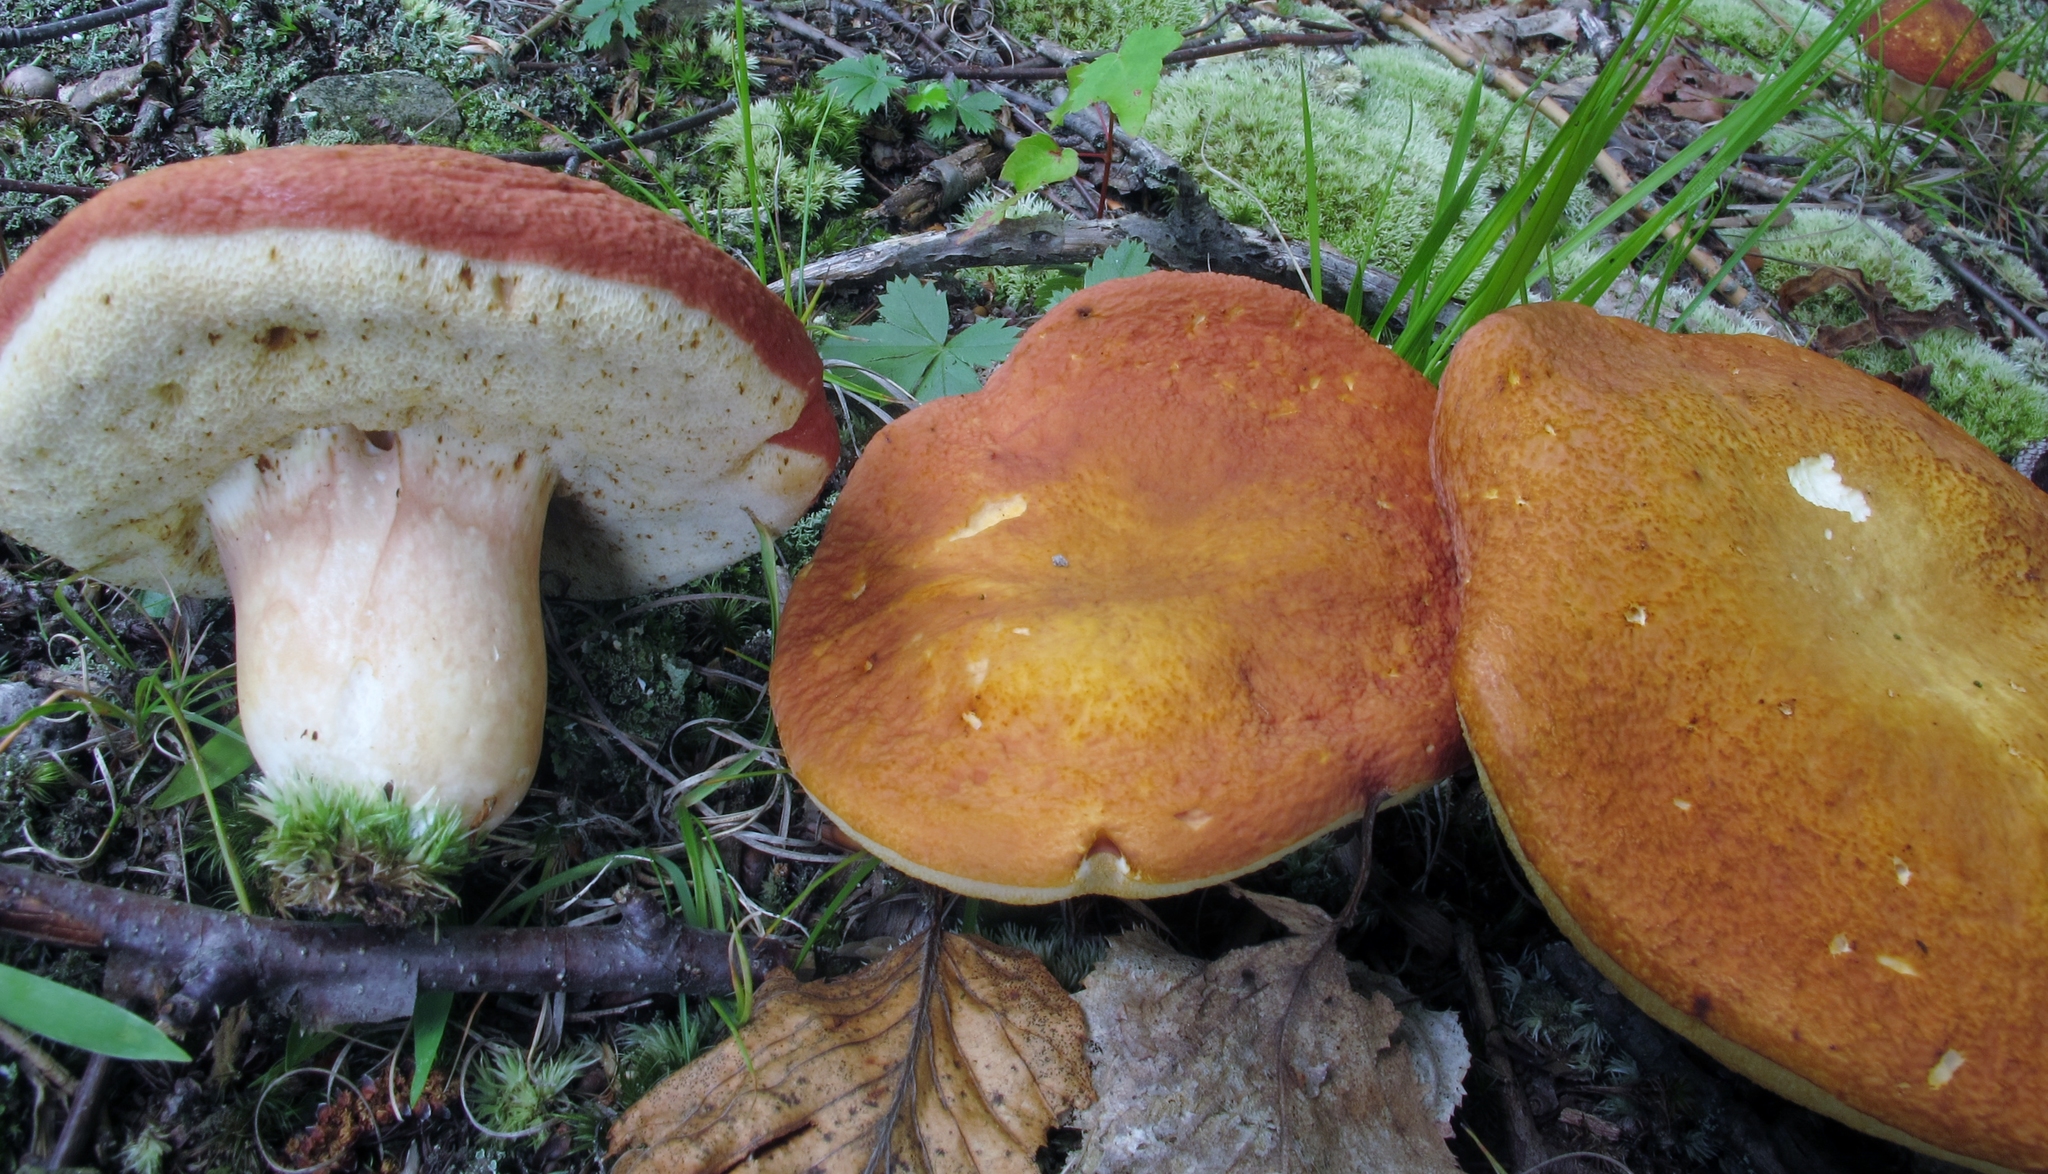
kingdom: Fungi
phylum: Basidiomycota
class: Agaricomycetes
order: Boletales
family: Boletaceae
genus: Xanthoconium
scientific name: Xanthoconium affine
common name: Spotted bolete
